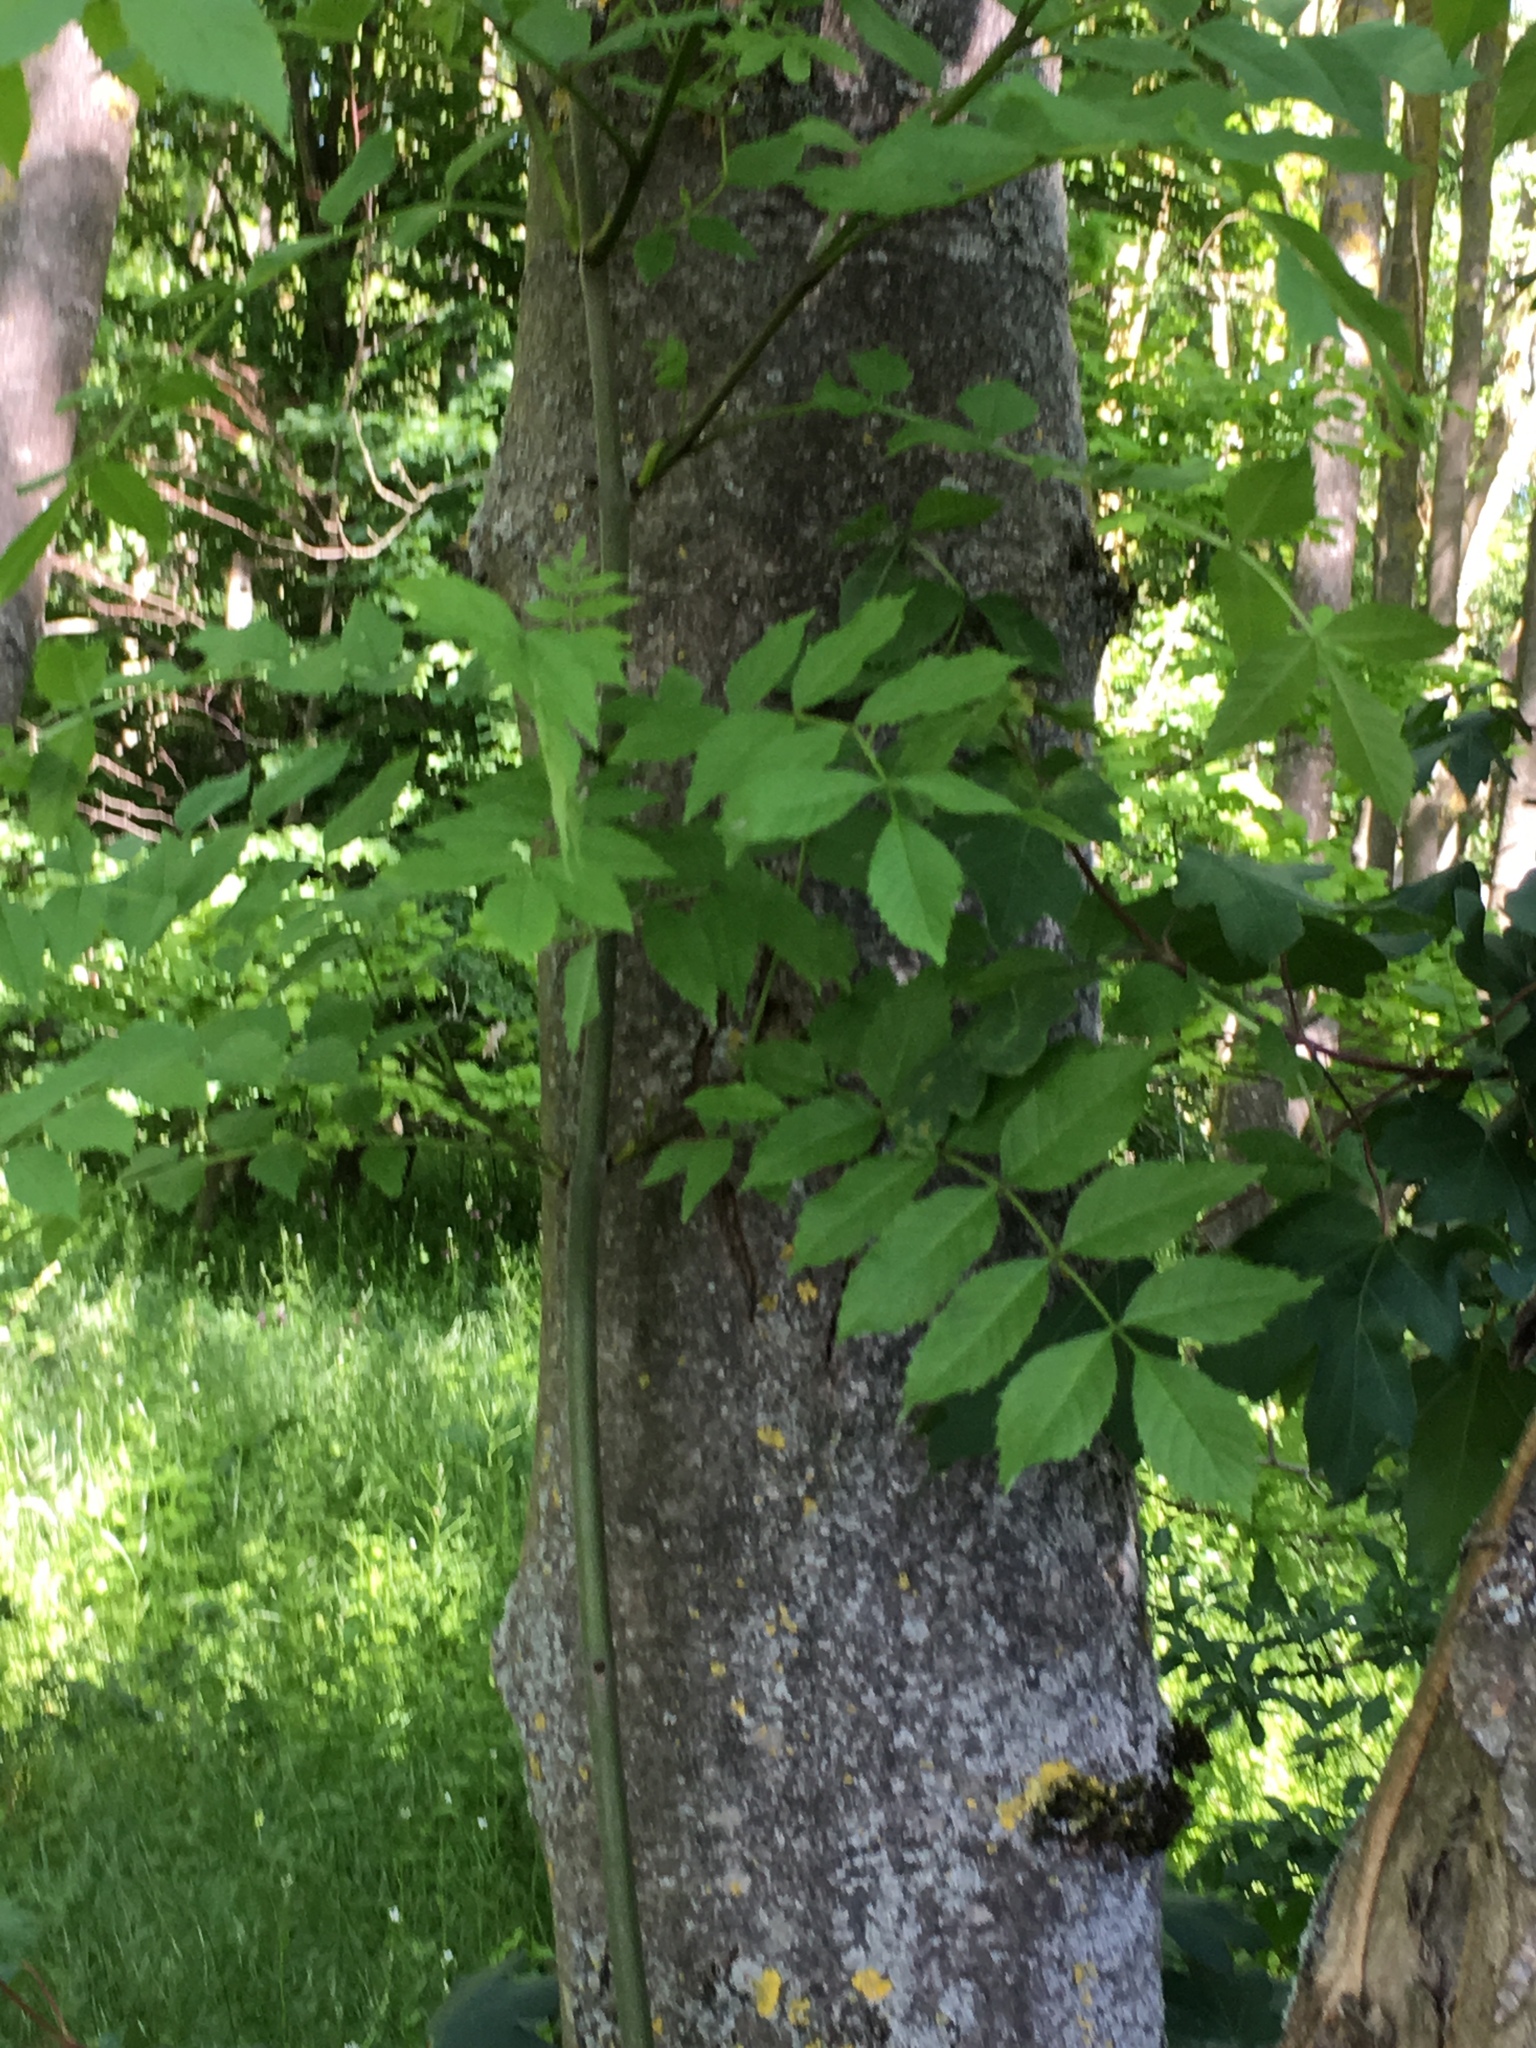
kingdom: Plantae
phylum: Tracheophyta
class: Magnoliopsida
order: Lamiales
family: Oleaceae
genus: Fraxinus
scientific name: Fraxinus excelsior
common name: European ash
